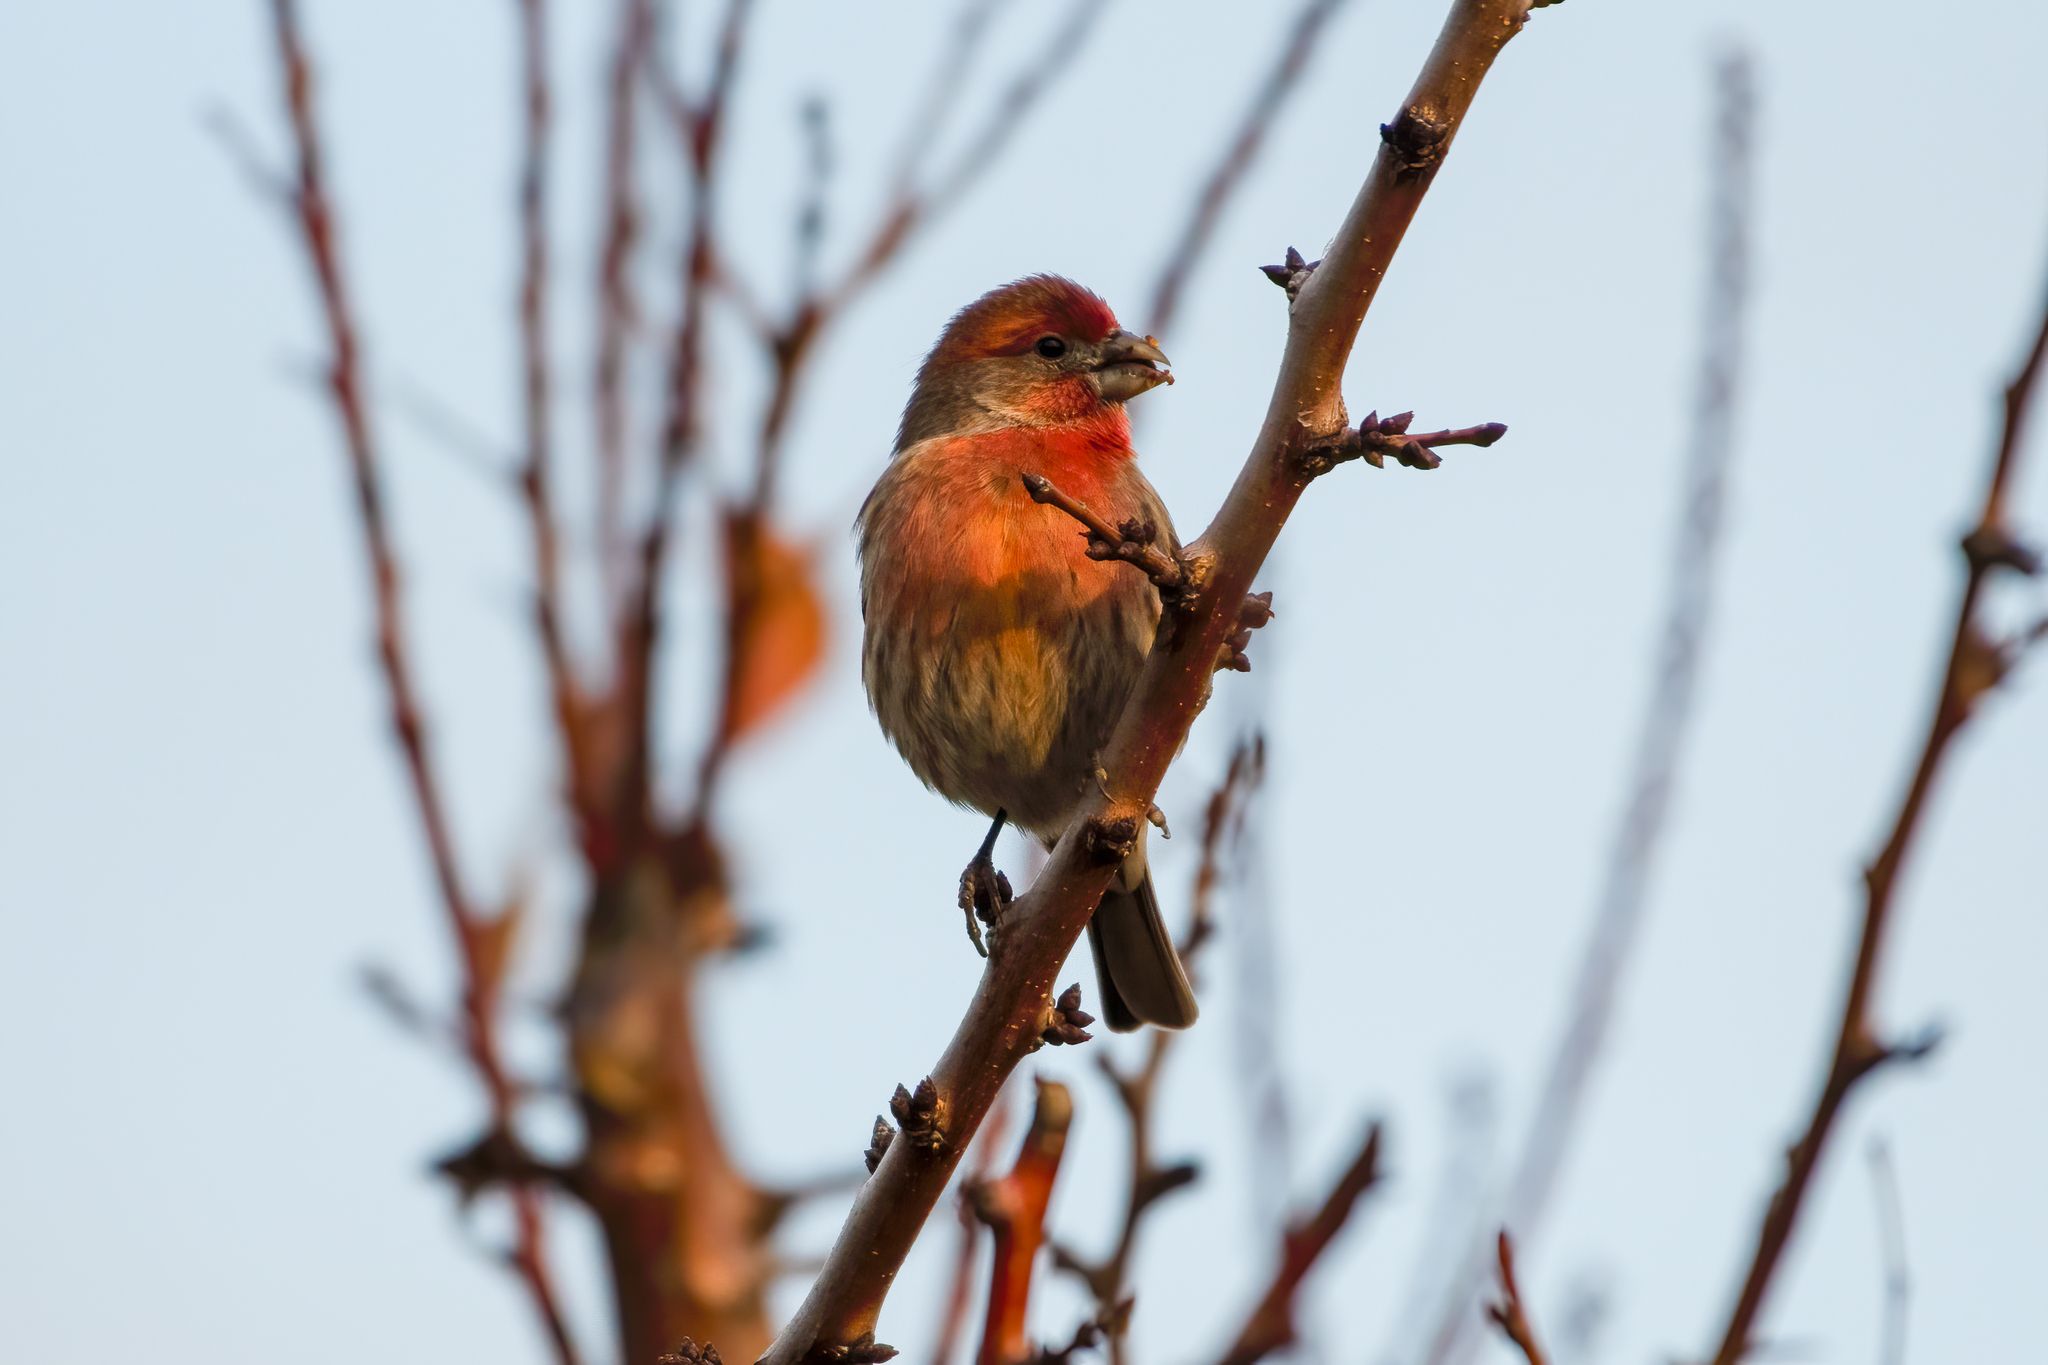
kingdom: Animalia
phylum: Chordata
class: Aves
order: Passeriformes
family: Fringillidae
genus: Haemorhous
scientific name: Haemorhous mexicanus
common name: House finch
